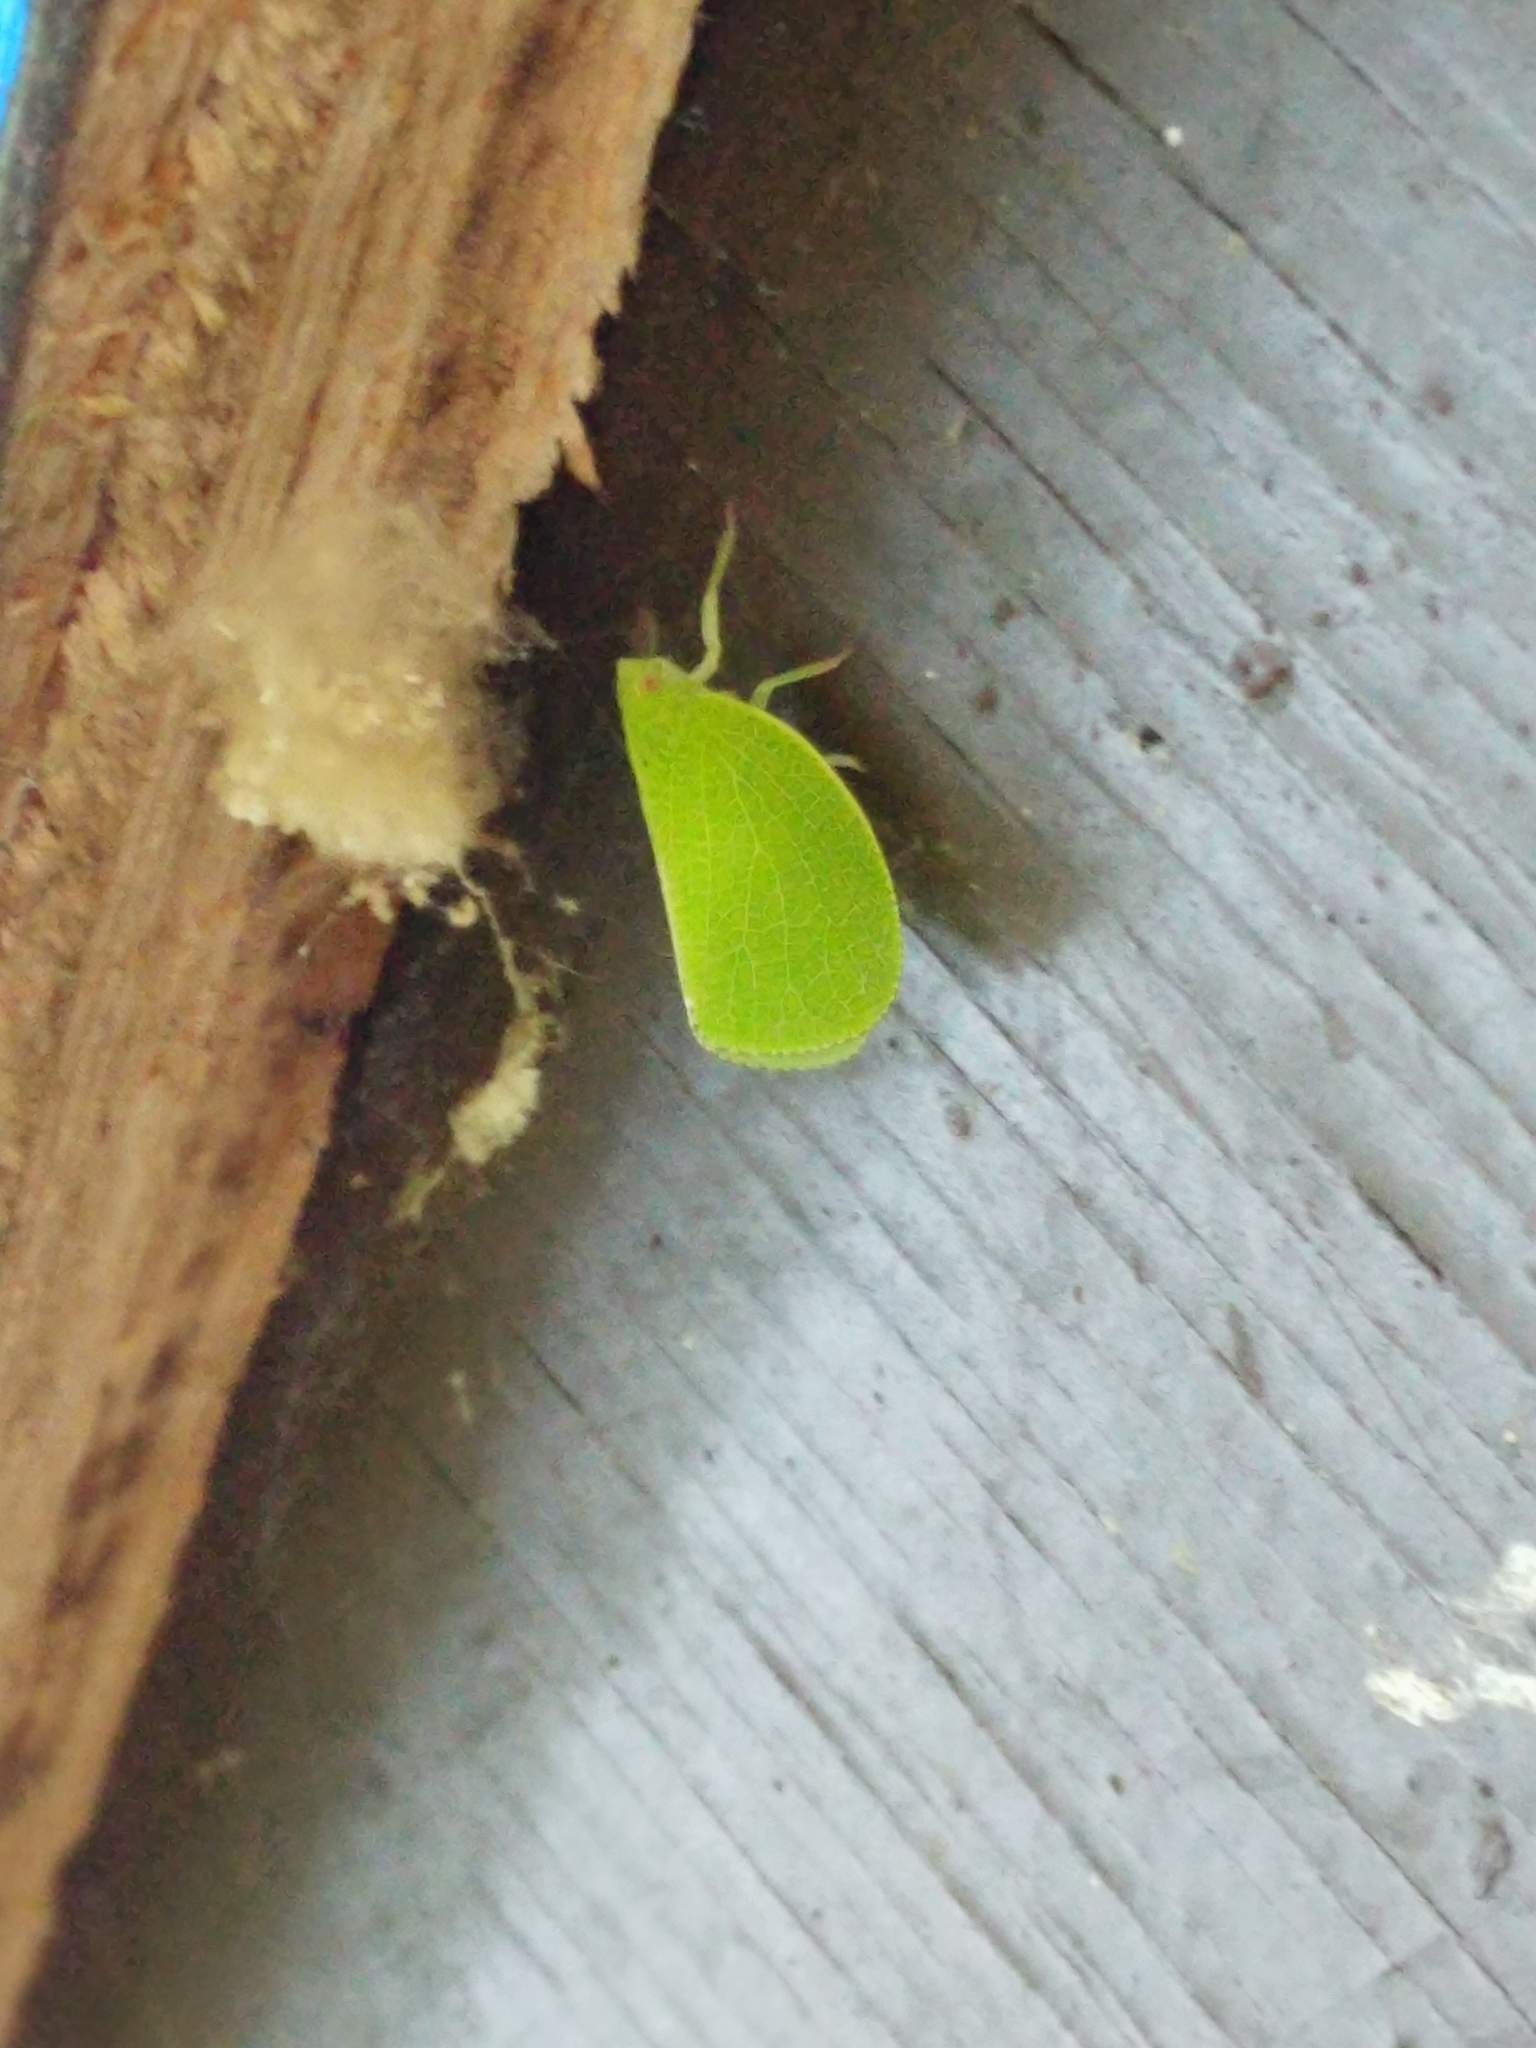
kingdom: Animalia
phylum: Arthropoda
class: Insecta
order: Hemiptera
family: Acanaloniidae
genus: Acanalonia
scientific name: Acanalonia conica
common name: Green cone-headed planthopper
